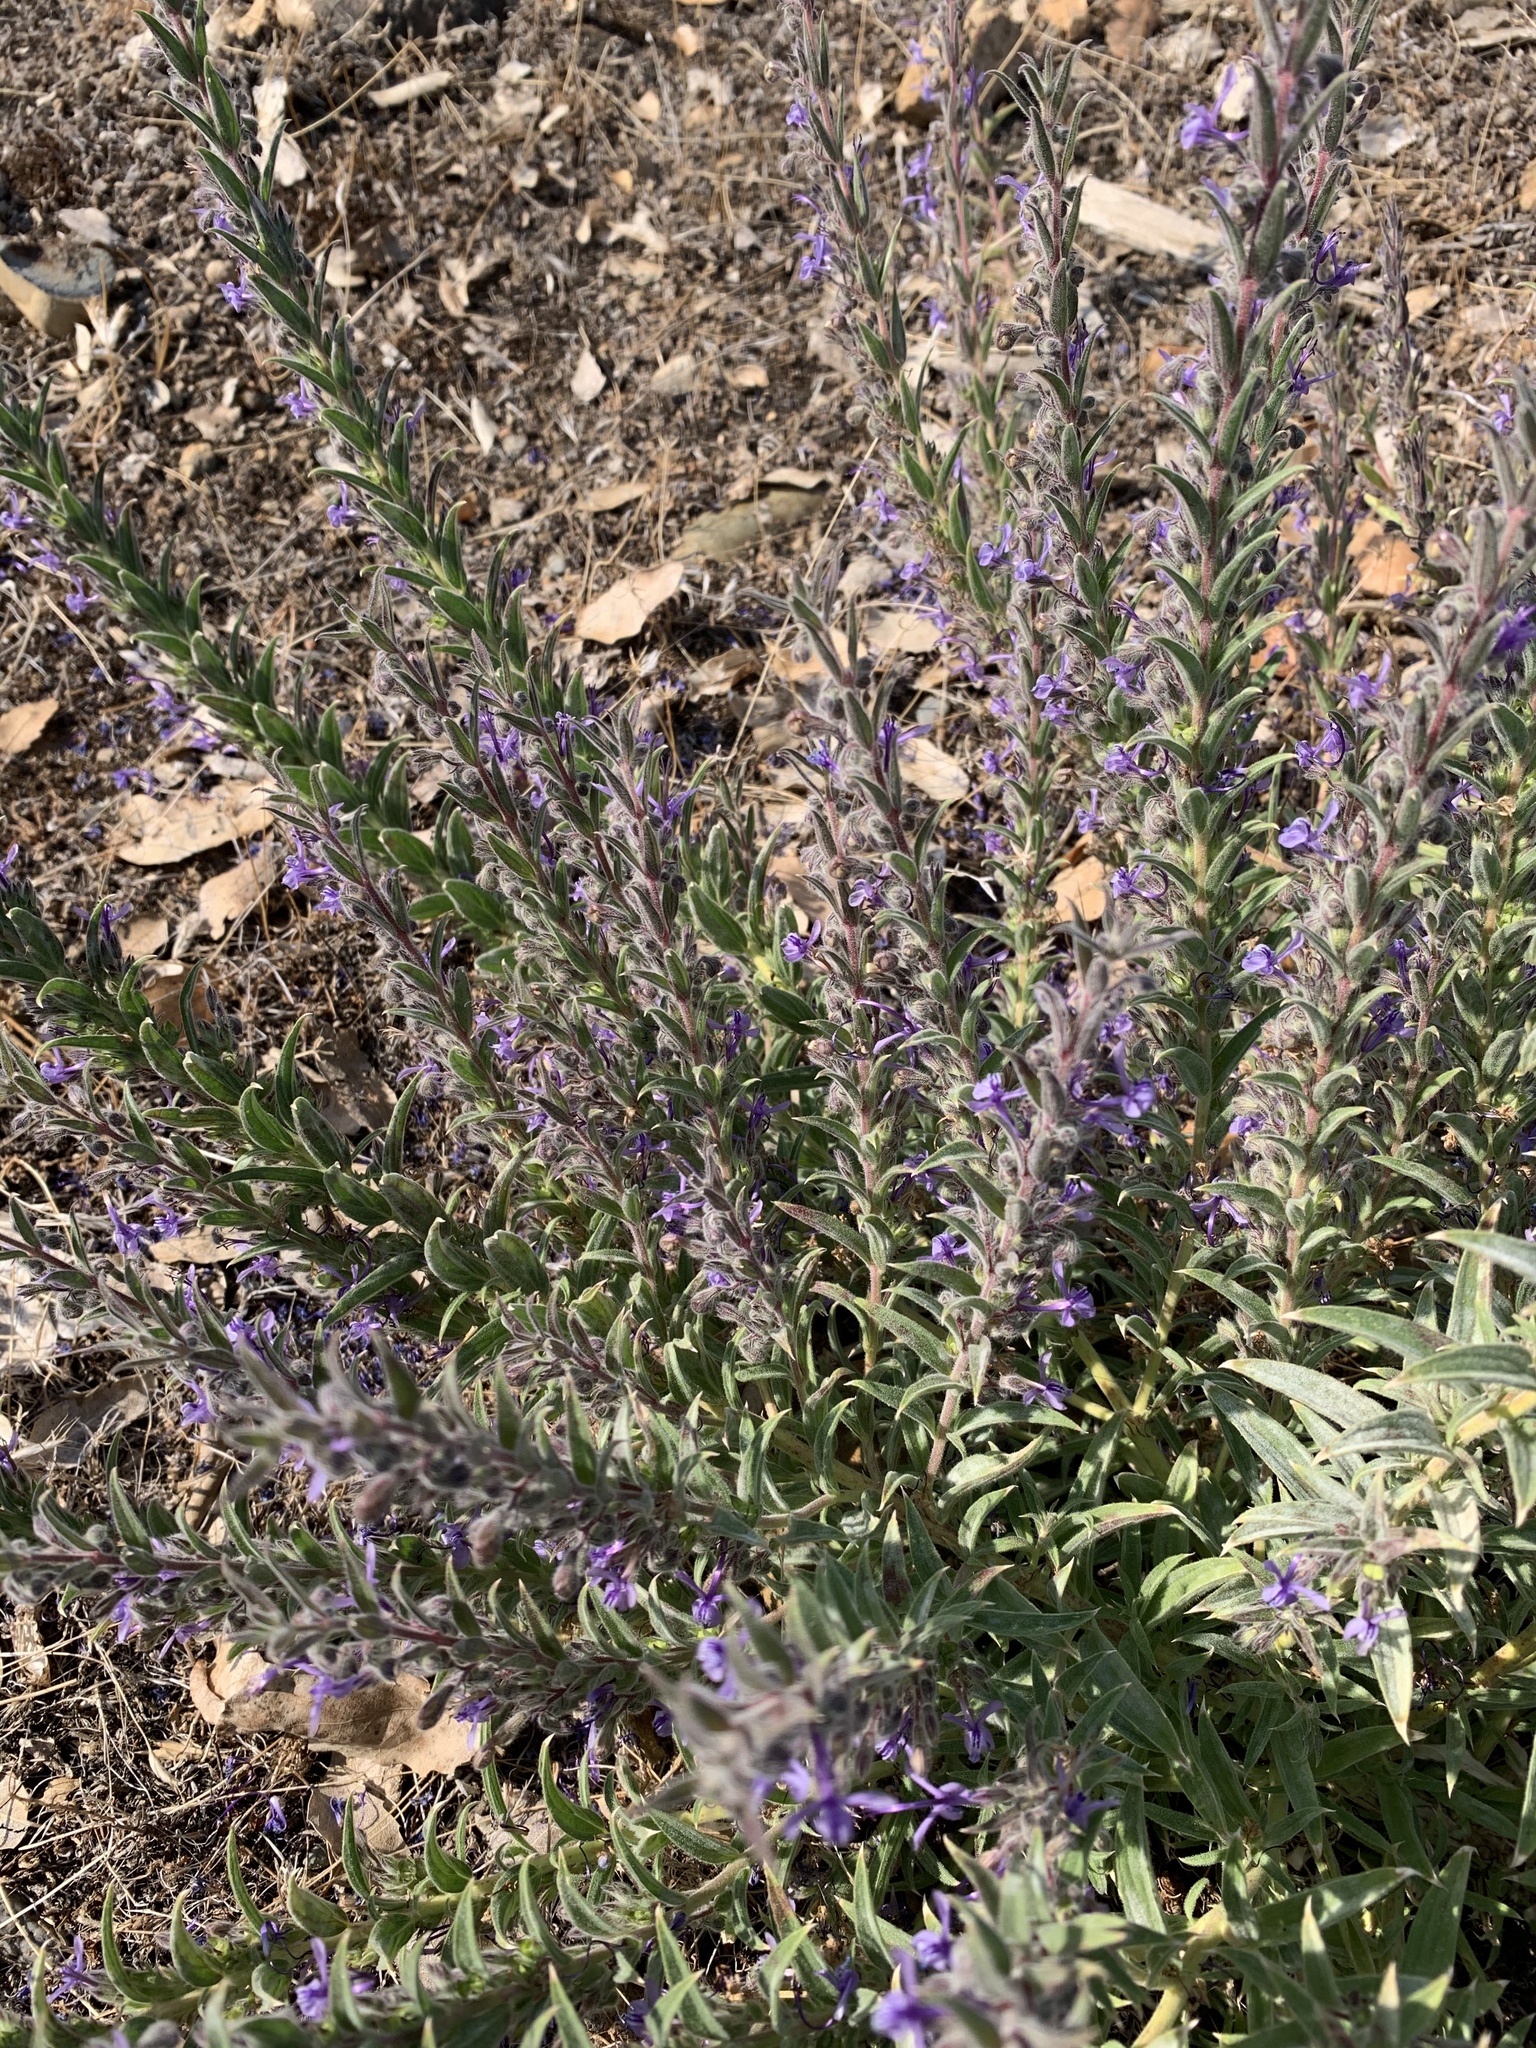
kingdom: Plantae
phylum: Tracheophyta
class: Magnoliopsida
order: Lamiales
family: Lamiaceae
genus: Trichostema
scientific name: Trichostema lanceolatum
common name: Vinegar-weed
